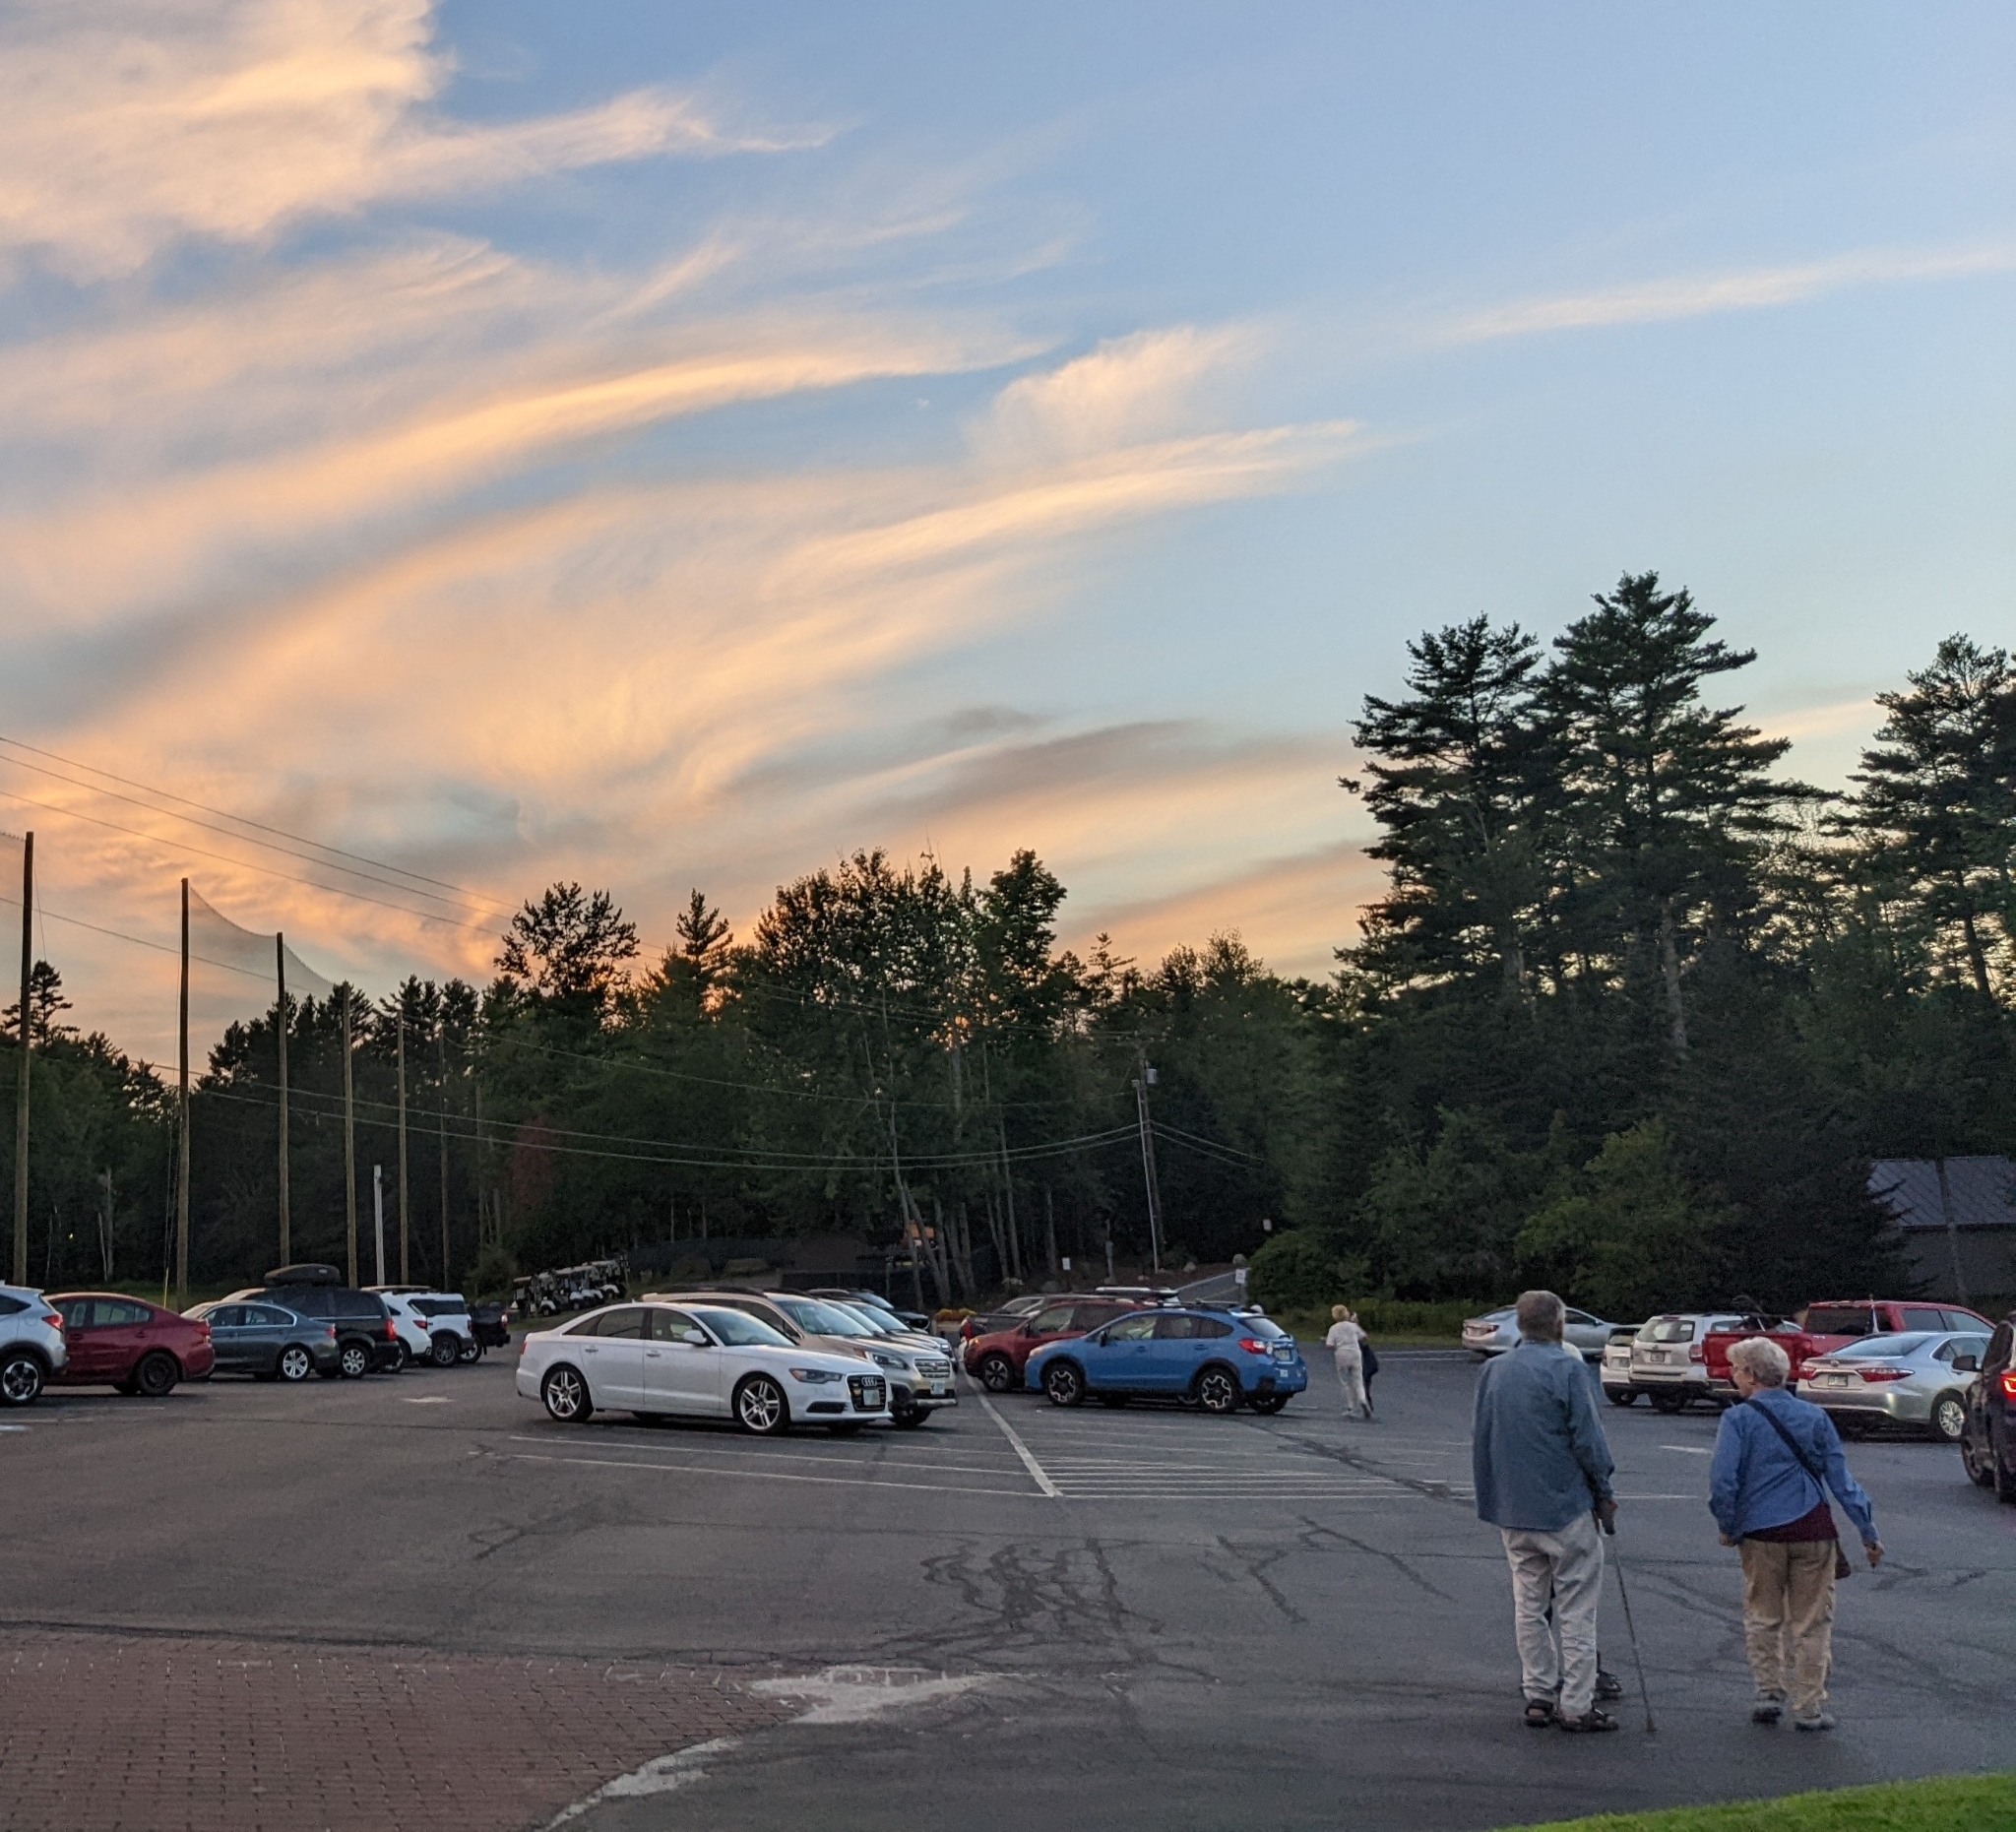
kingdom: Plantae
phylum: Tracheophyta
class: Pinopsida
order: Pinales
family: Pinaceae
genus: Pinus
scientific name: Pinus strobus
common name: Weymouth pine
